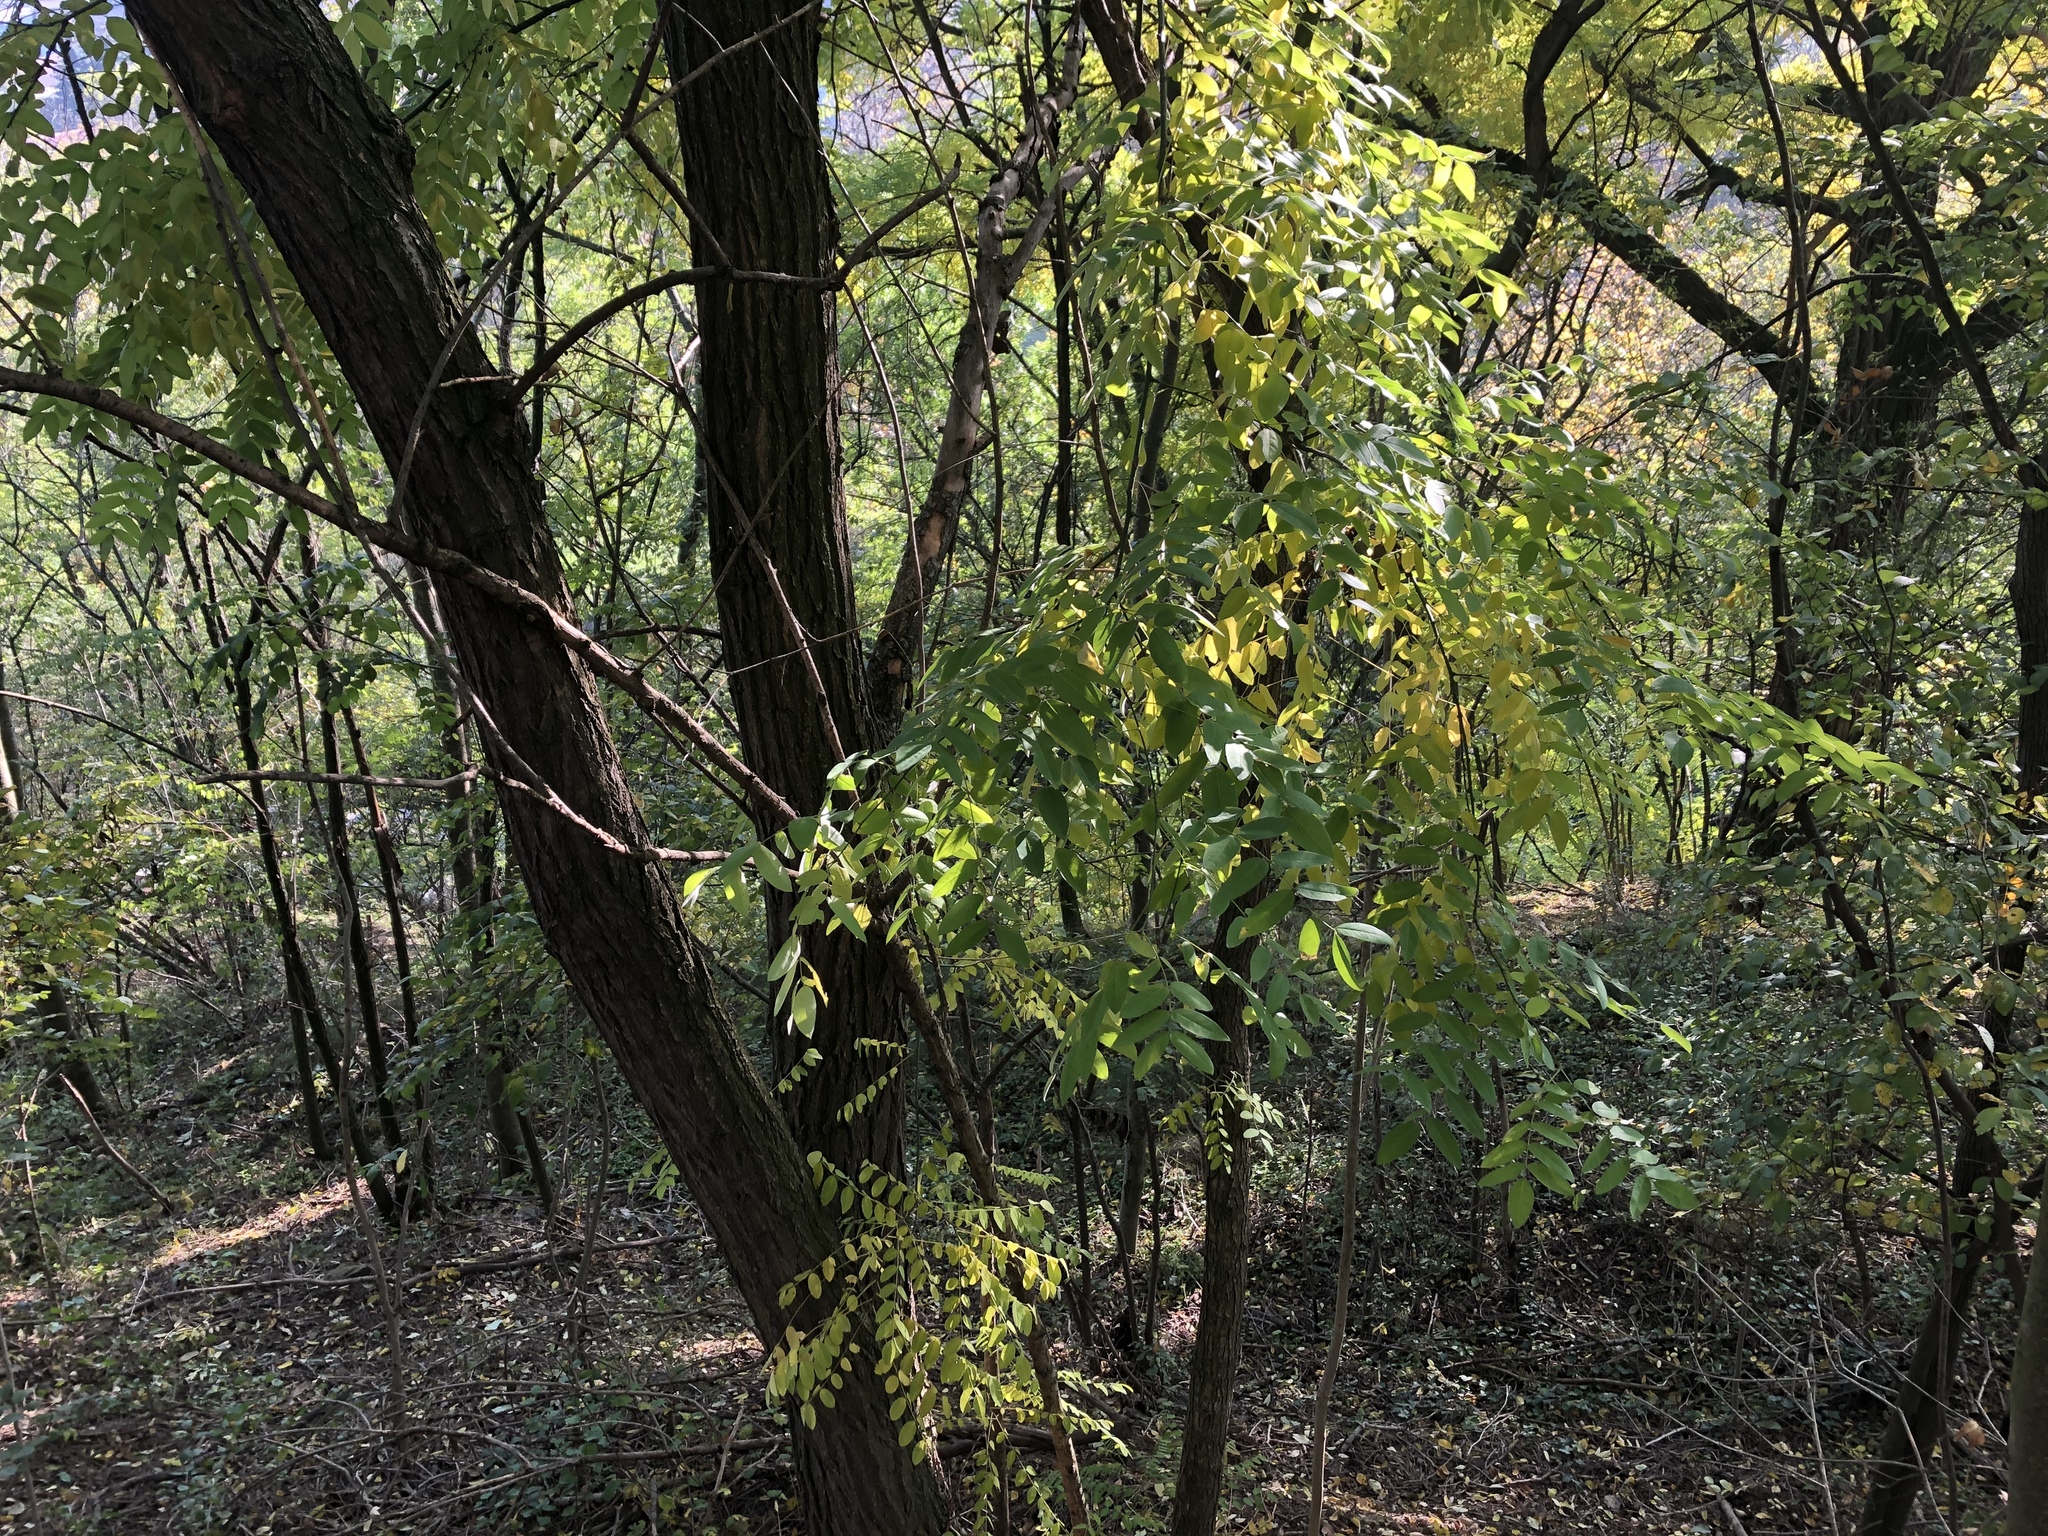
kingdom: Plantae
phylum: Tracheophyta
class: Magnoliopsida
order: Fabales
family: Fabaceae
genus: Robinia
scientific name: Robinia pseudoacacia
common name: Black locust
